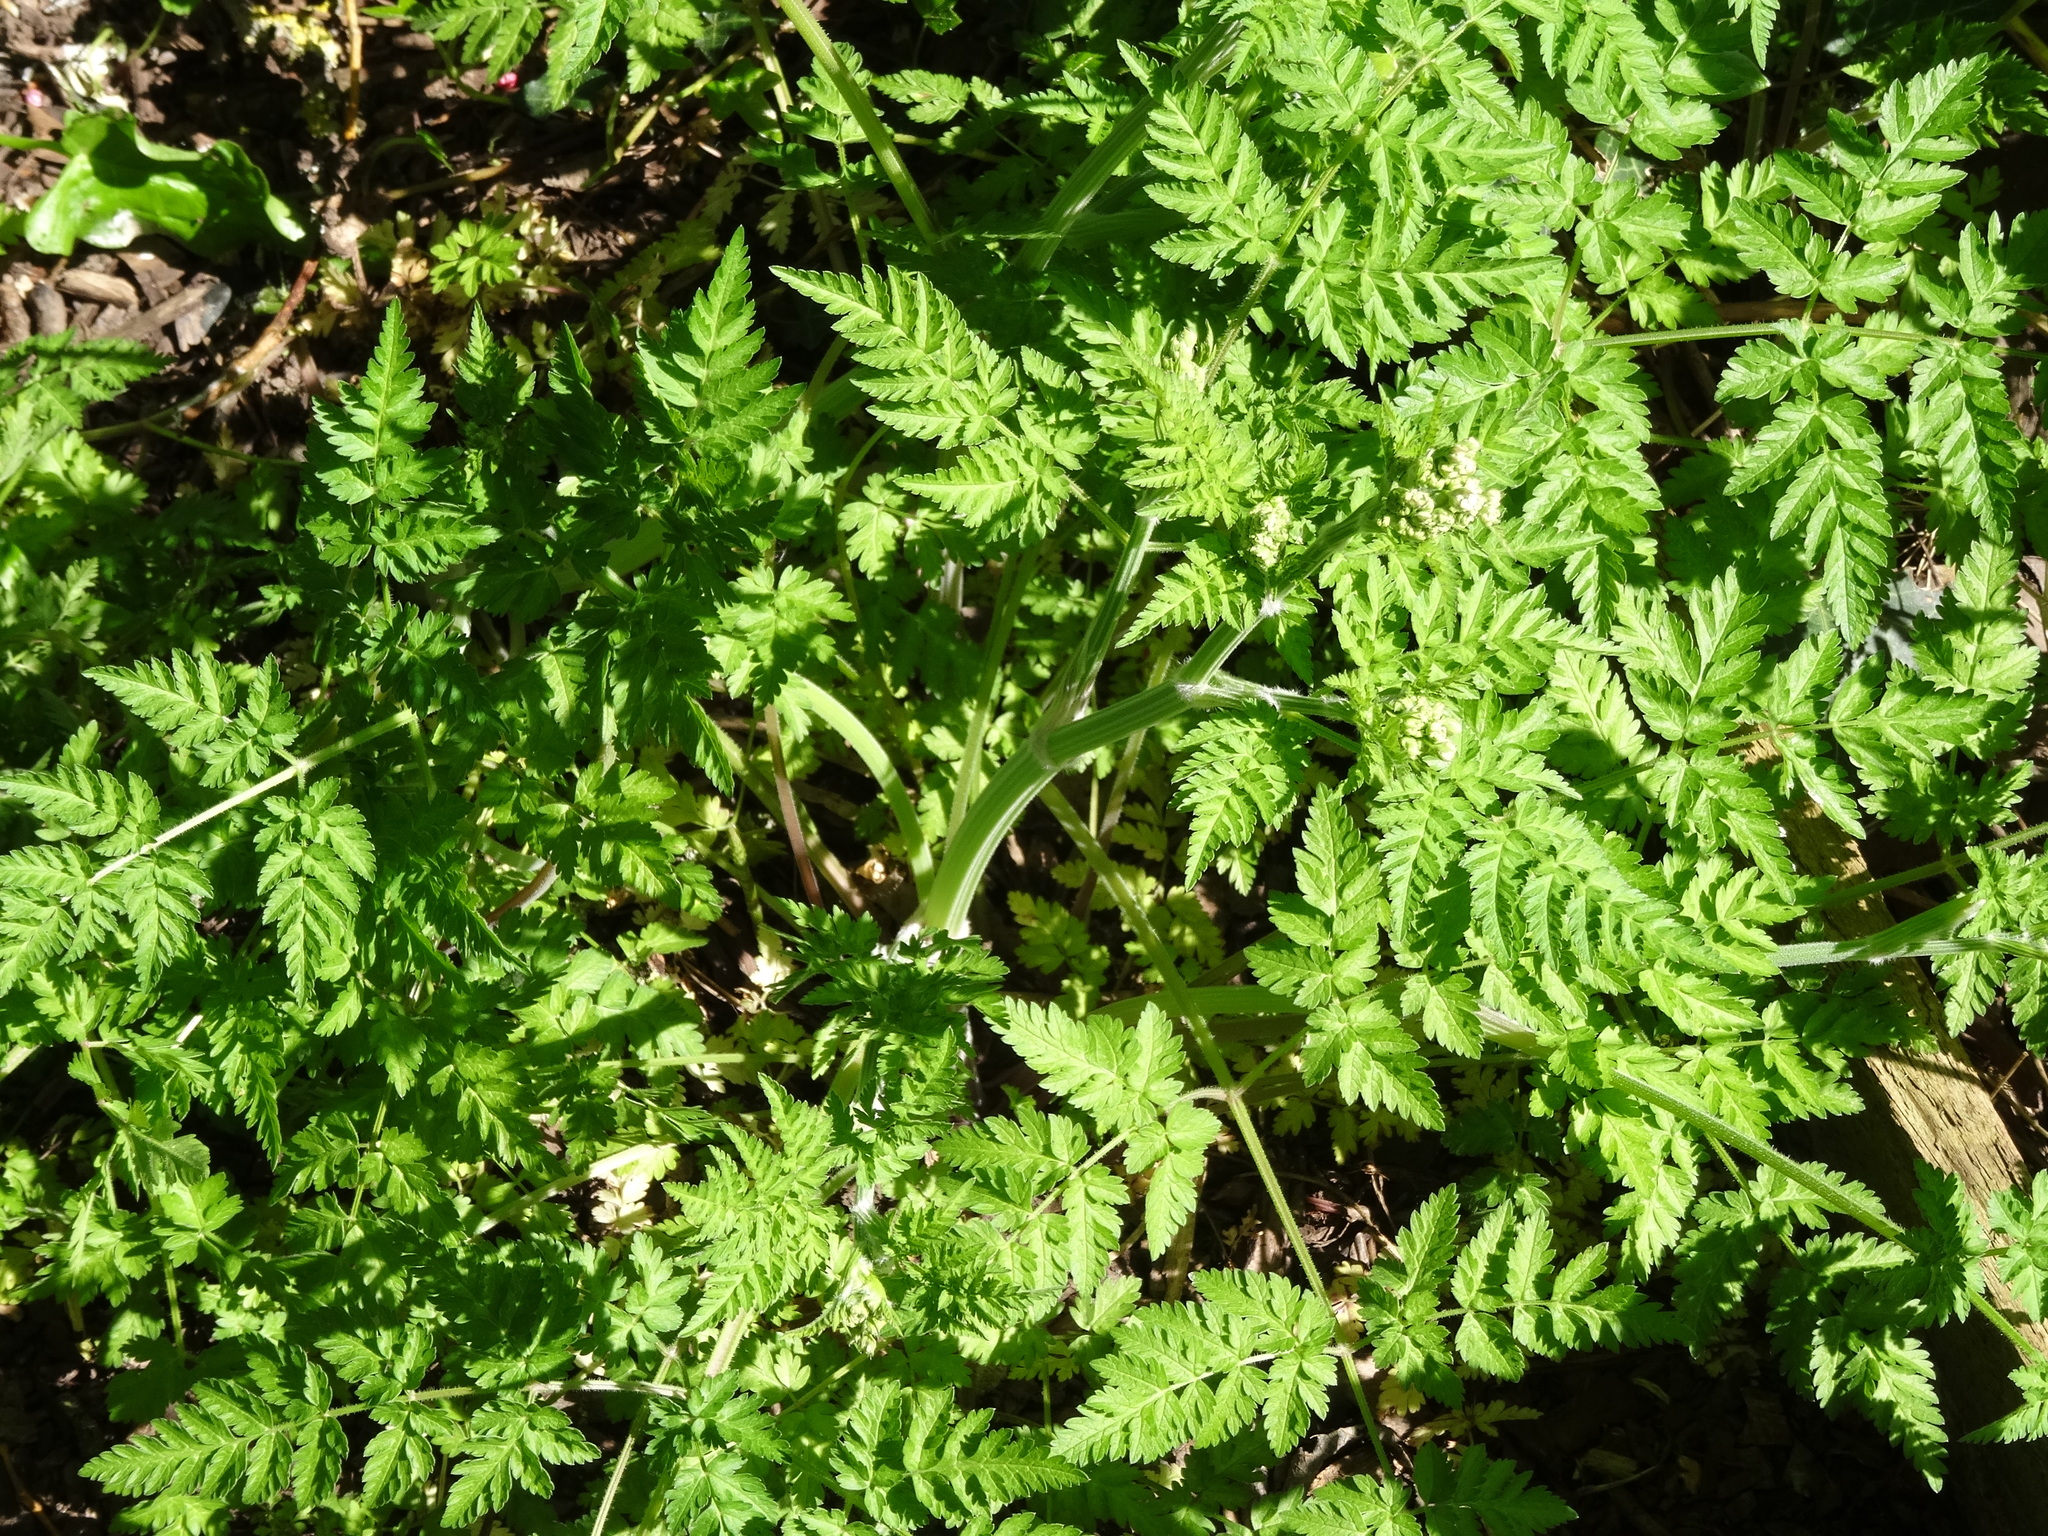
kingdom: Plantae
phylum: Tracheophyta
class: Magnoliopsida
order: Apiales
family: Apiaceae
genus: Anthriscus
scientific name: Anthriscus sylvestris
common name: Cow parsley
